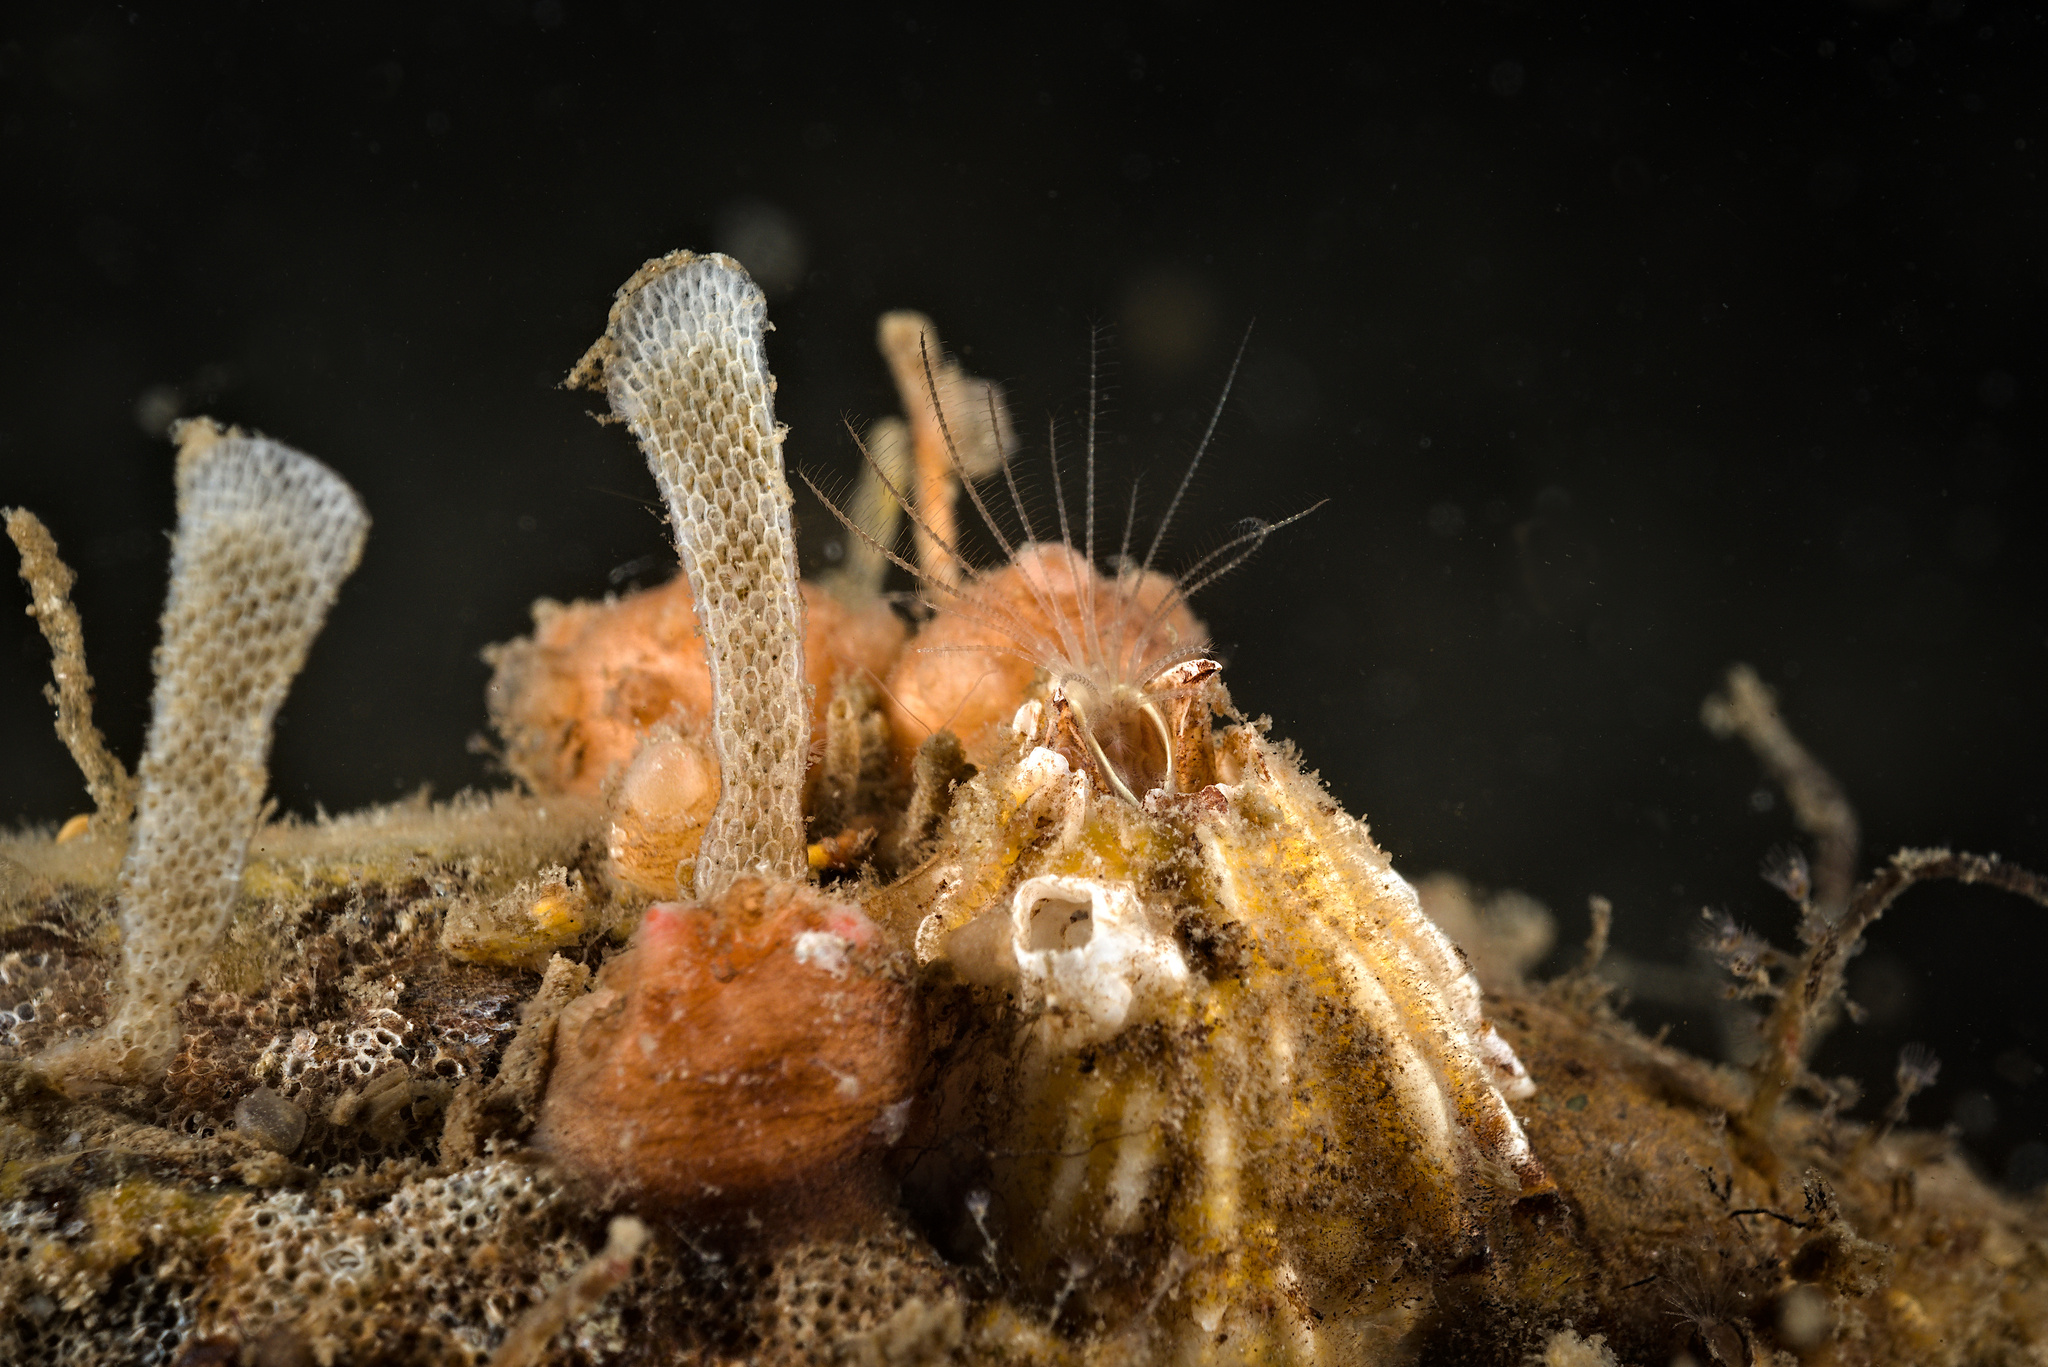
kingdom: Animalia
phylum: Arthropoda
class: Maxillopoda
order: Sessilia
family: Balanidae
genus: Balanus
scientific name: Balanus balanus
